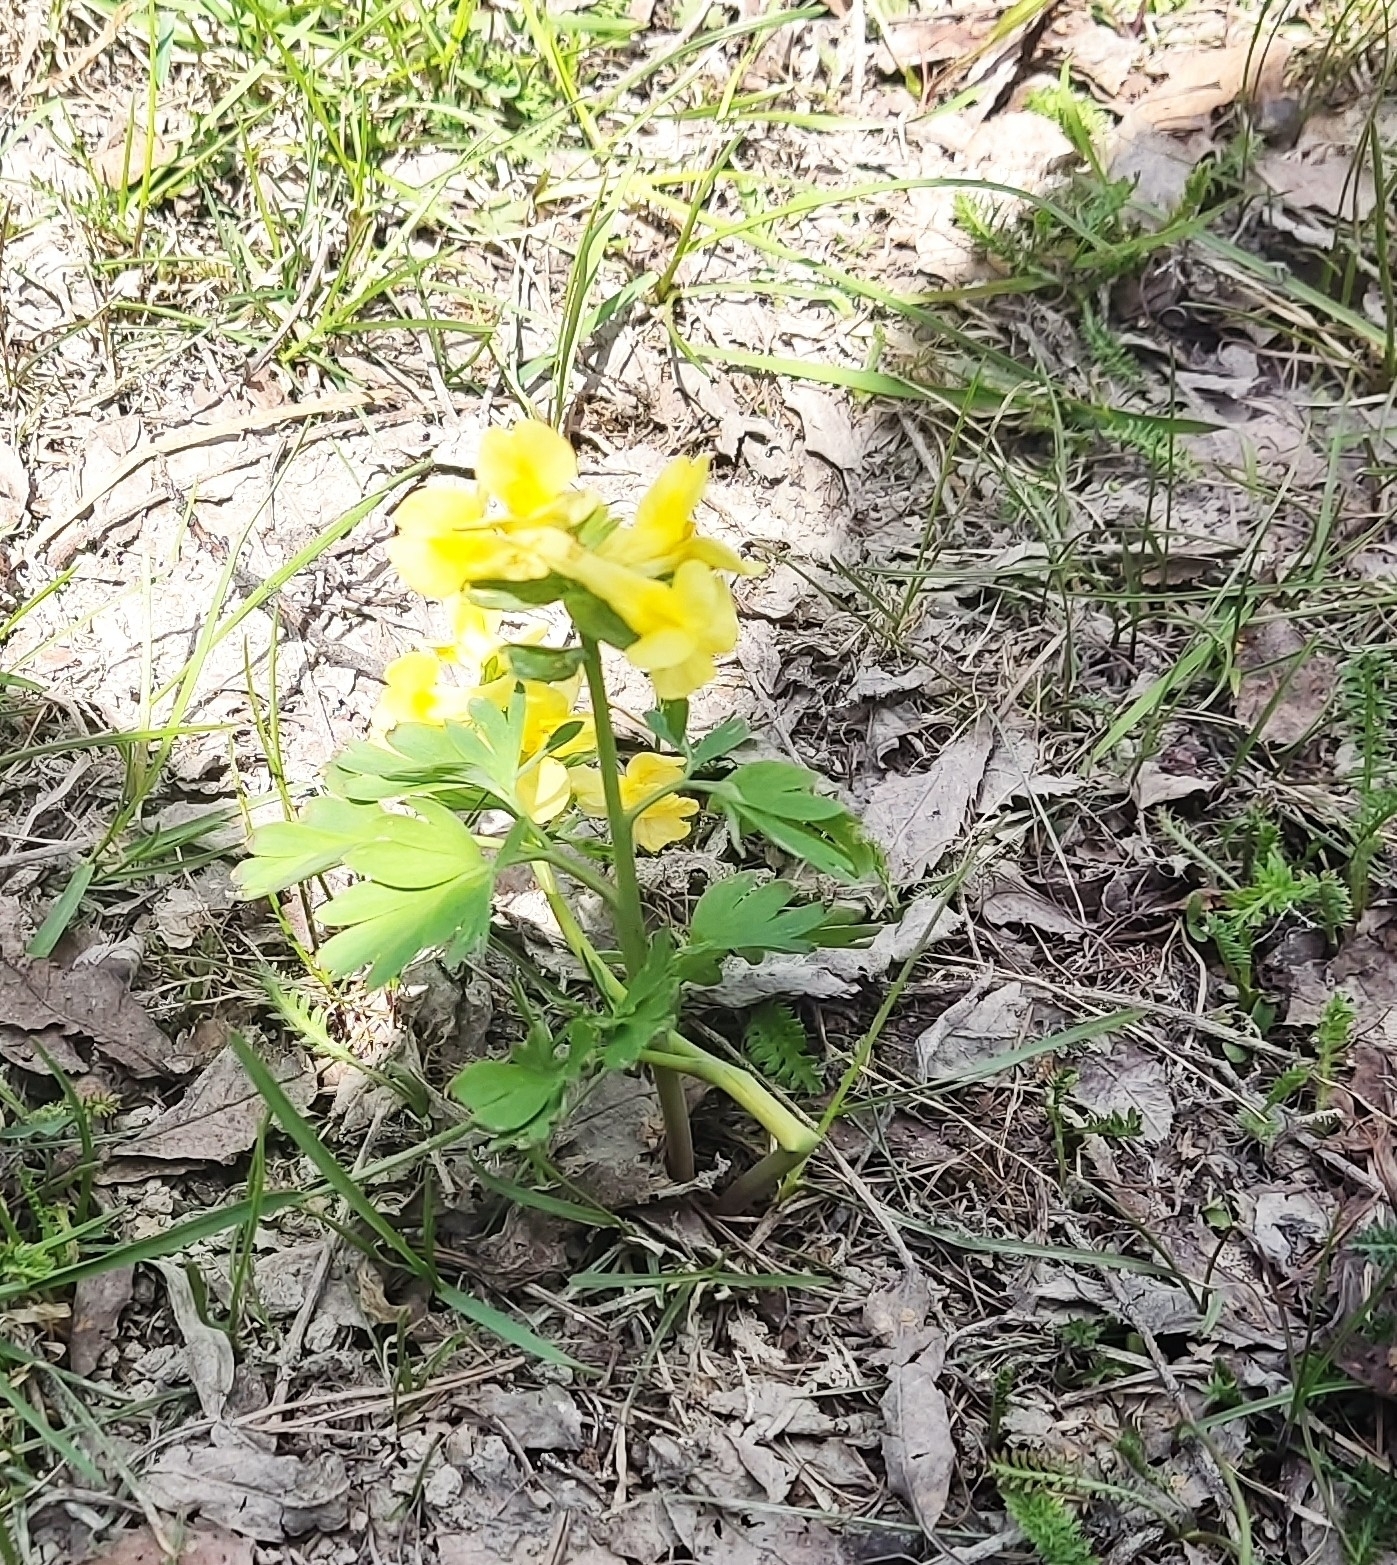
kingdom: Plantae
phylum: Tracheophyta
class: Magnoliopsida
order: Ranunculales
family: Papaveraceae
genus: Corydalis
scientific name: Corydalis bracteata
